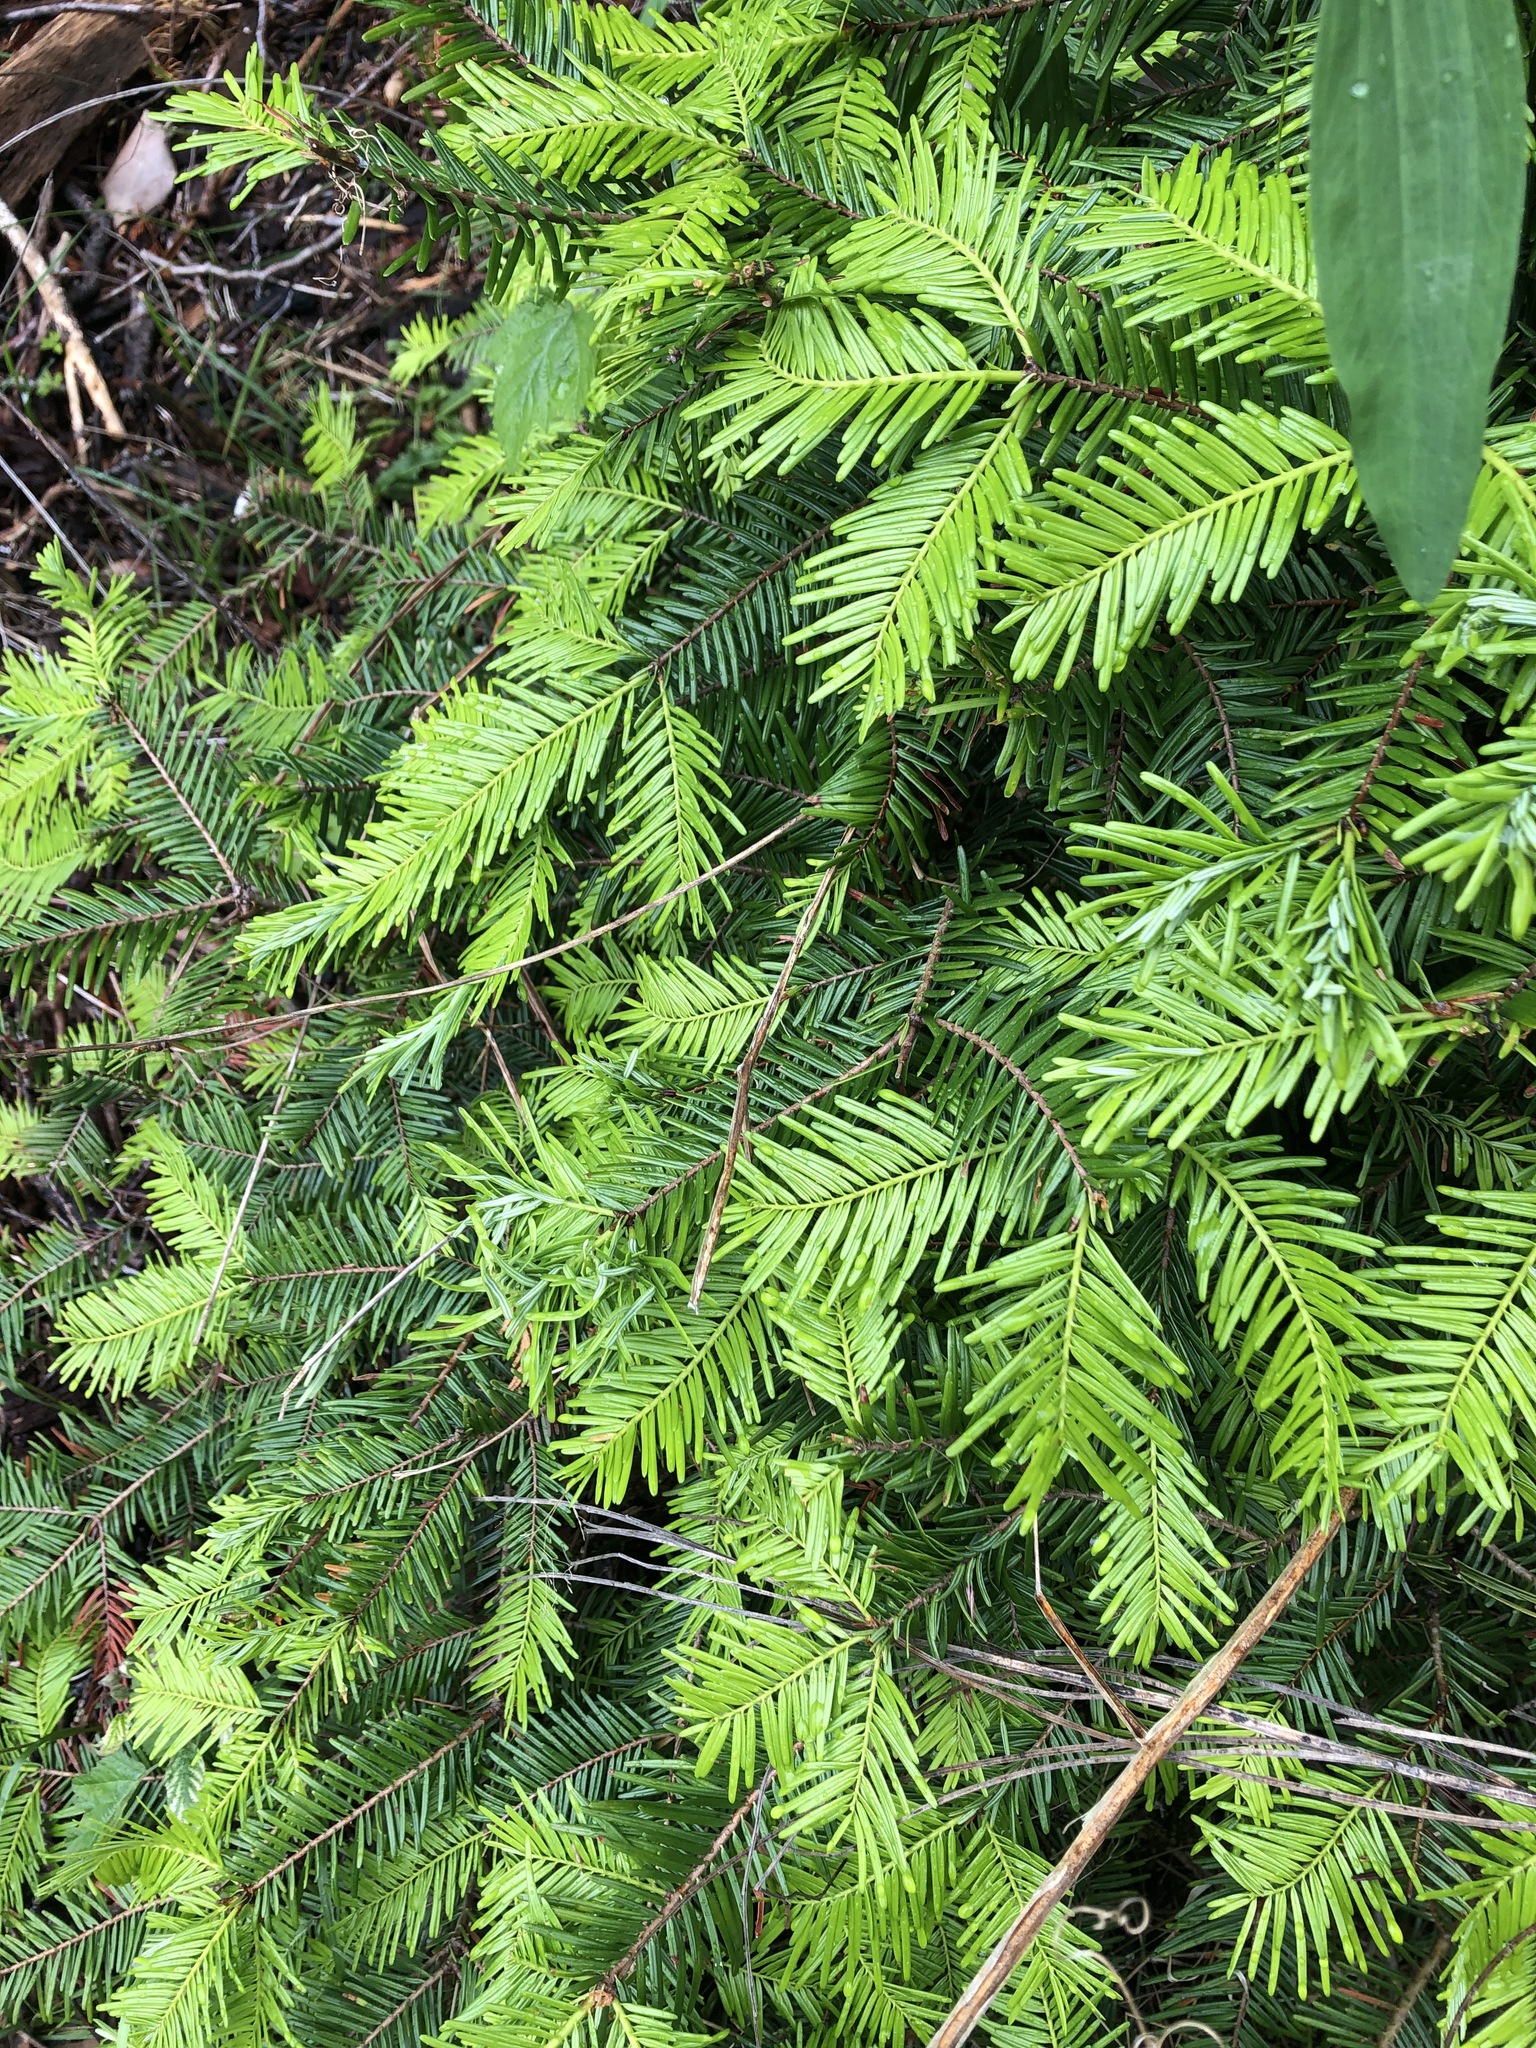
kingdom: Plantae
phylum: Tracheophyta
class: Pinopsida
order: Pinales
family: Pinaceae
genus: Abies
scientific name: Abies grandis
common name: Giant fir
